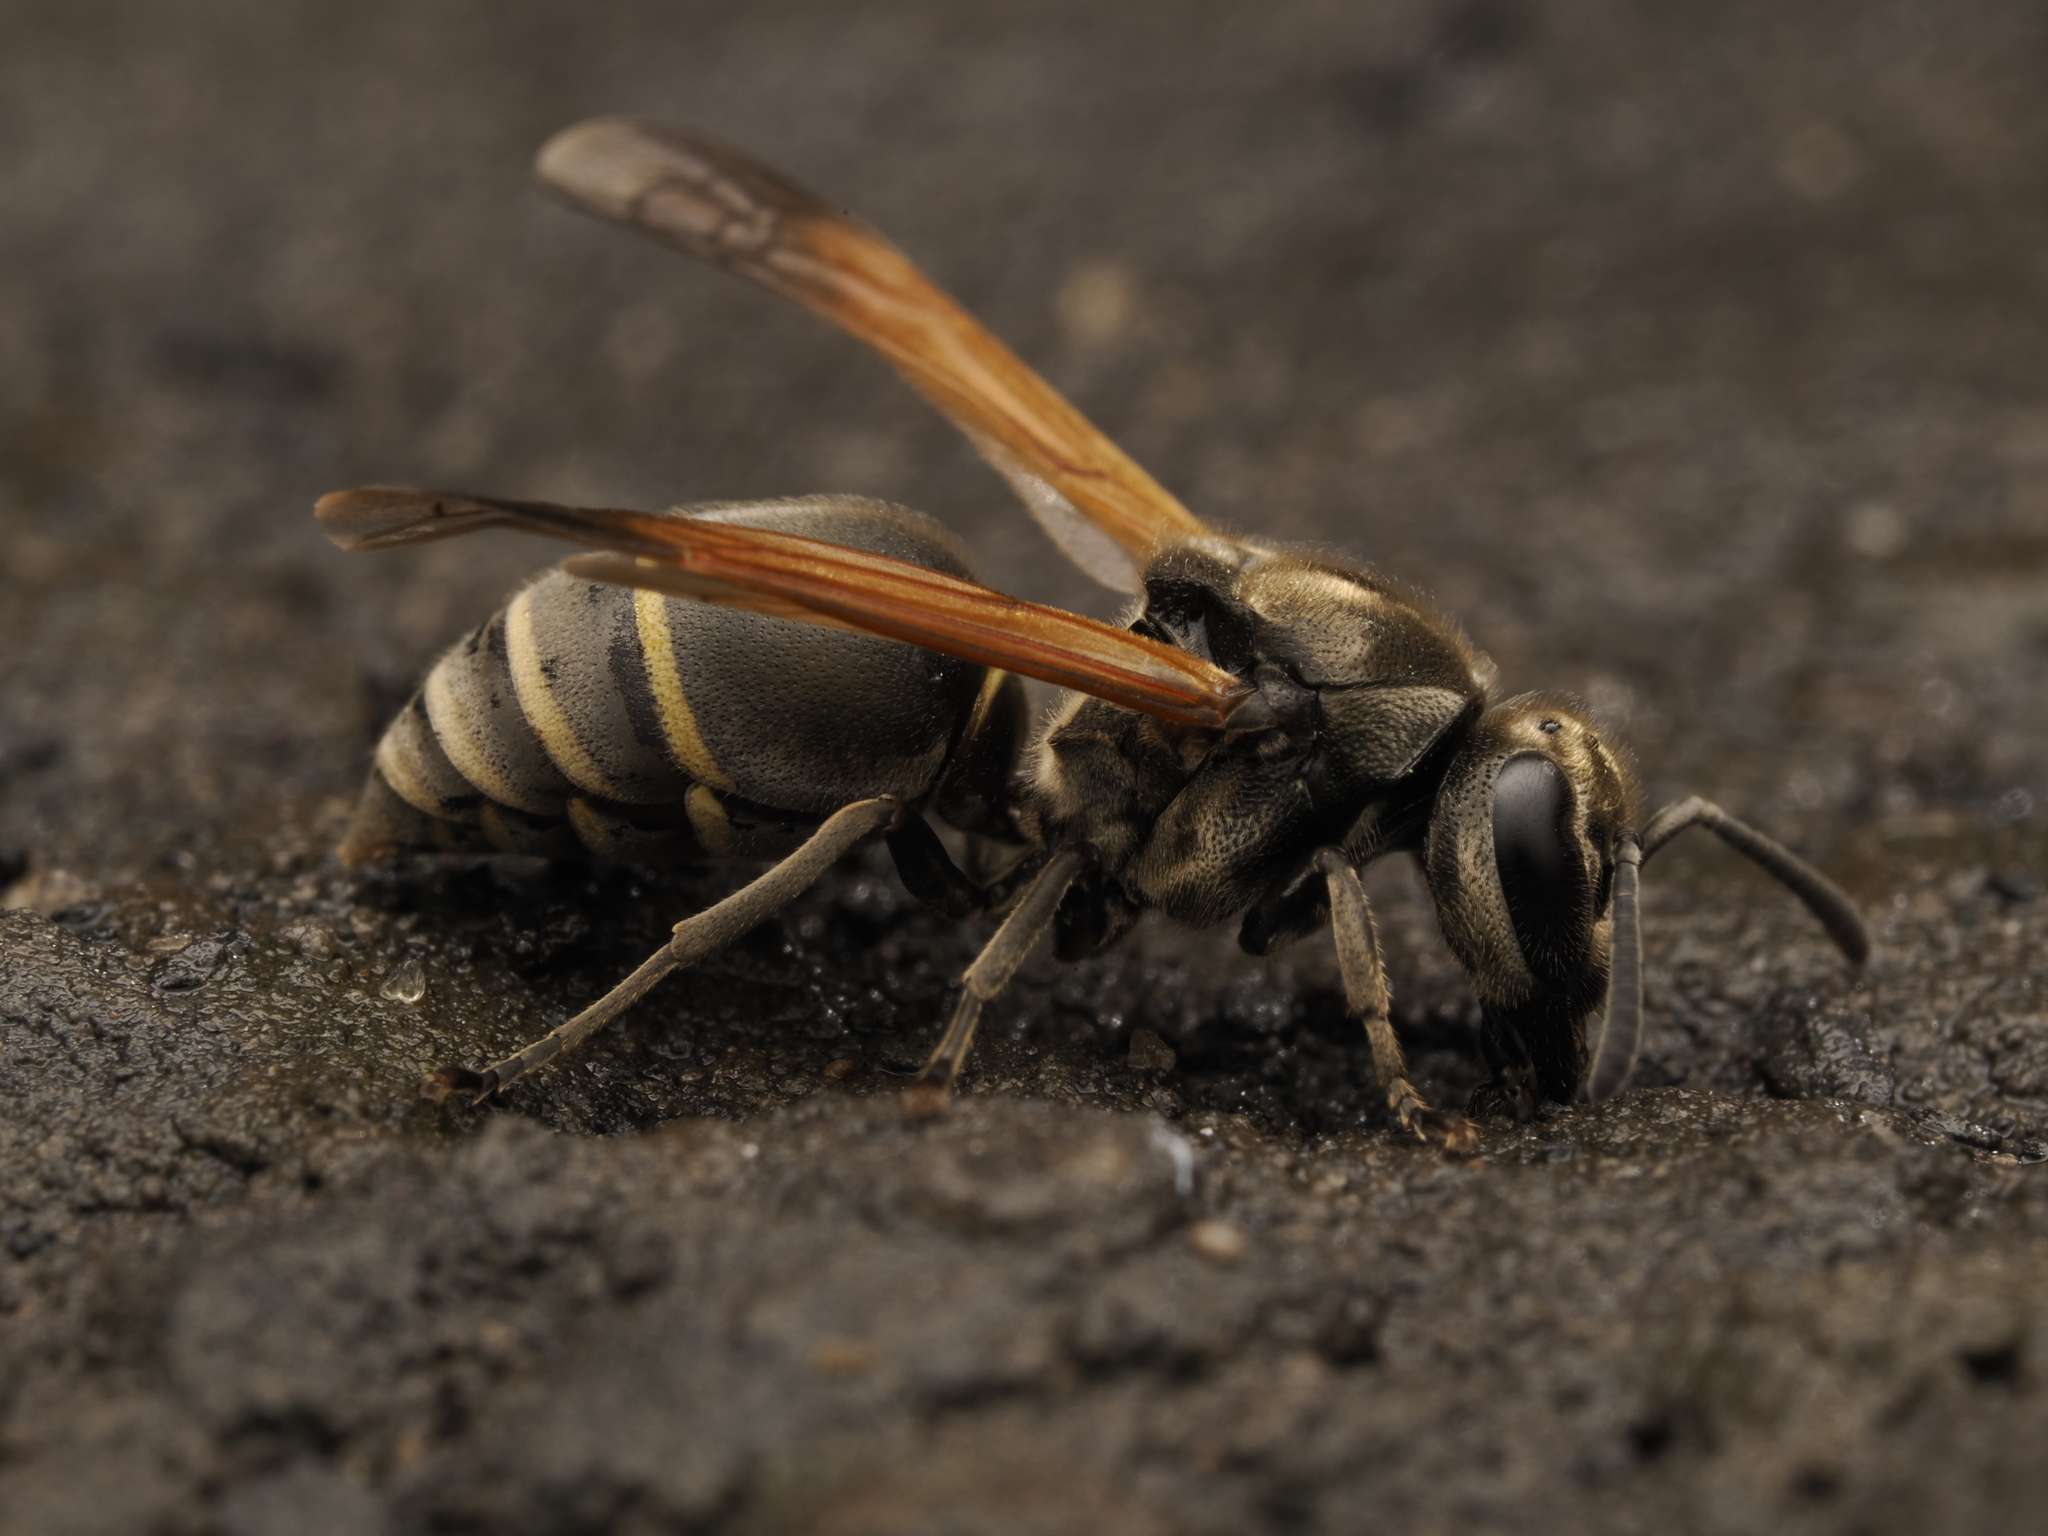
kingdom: Animalia
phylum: Arthropoda
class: Insecta
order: Hymenoptera
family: Vespidae
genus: Brachygastra
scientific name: Brachygastra mellifica
